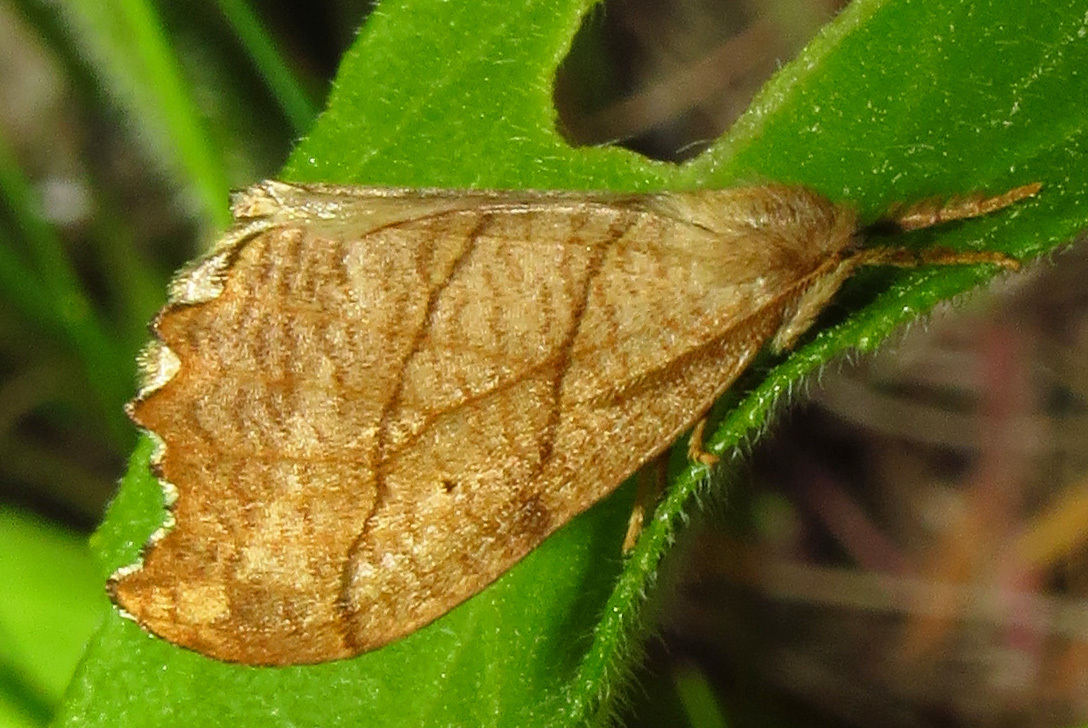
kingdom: Animalia
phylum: Arthropoda
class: Insecta
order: Lepidoptera
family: Drepanidae
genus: Falcaria
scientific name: Falcaria bilineata
